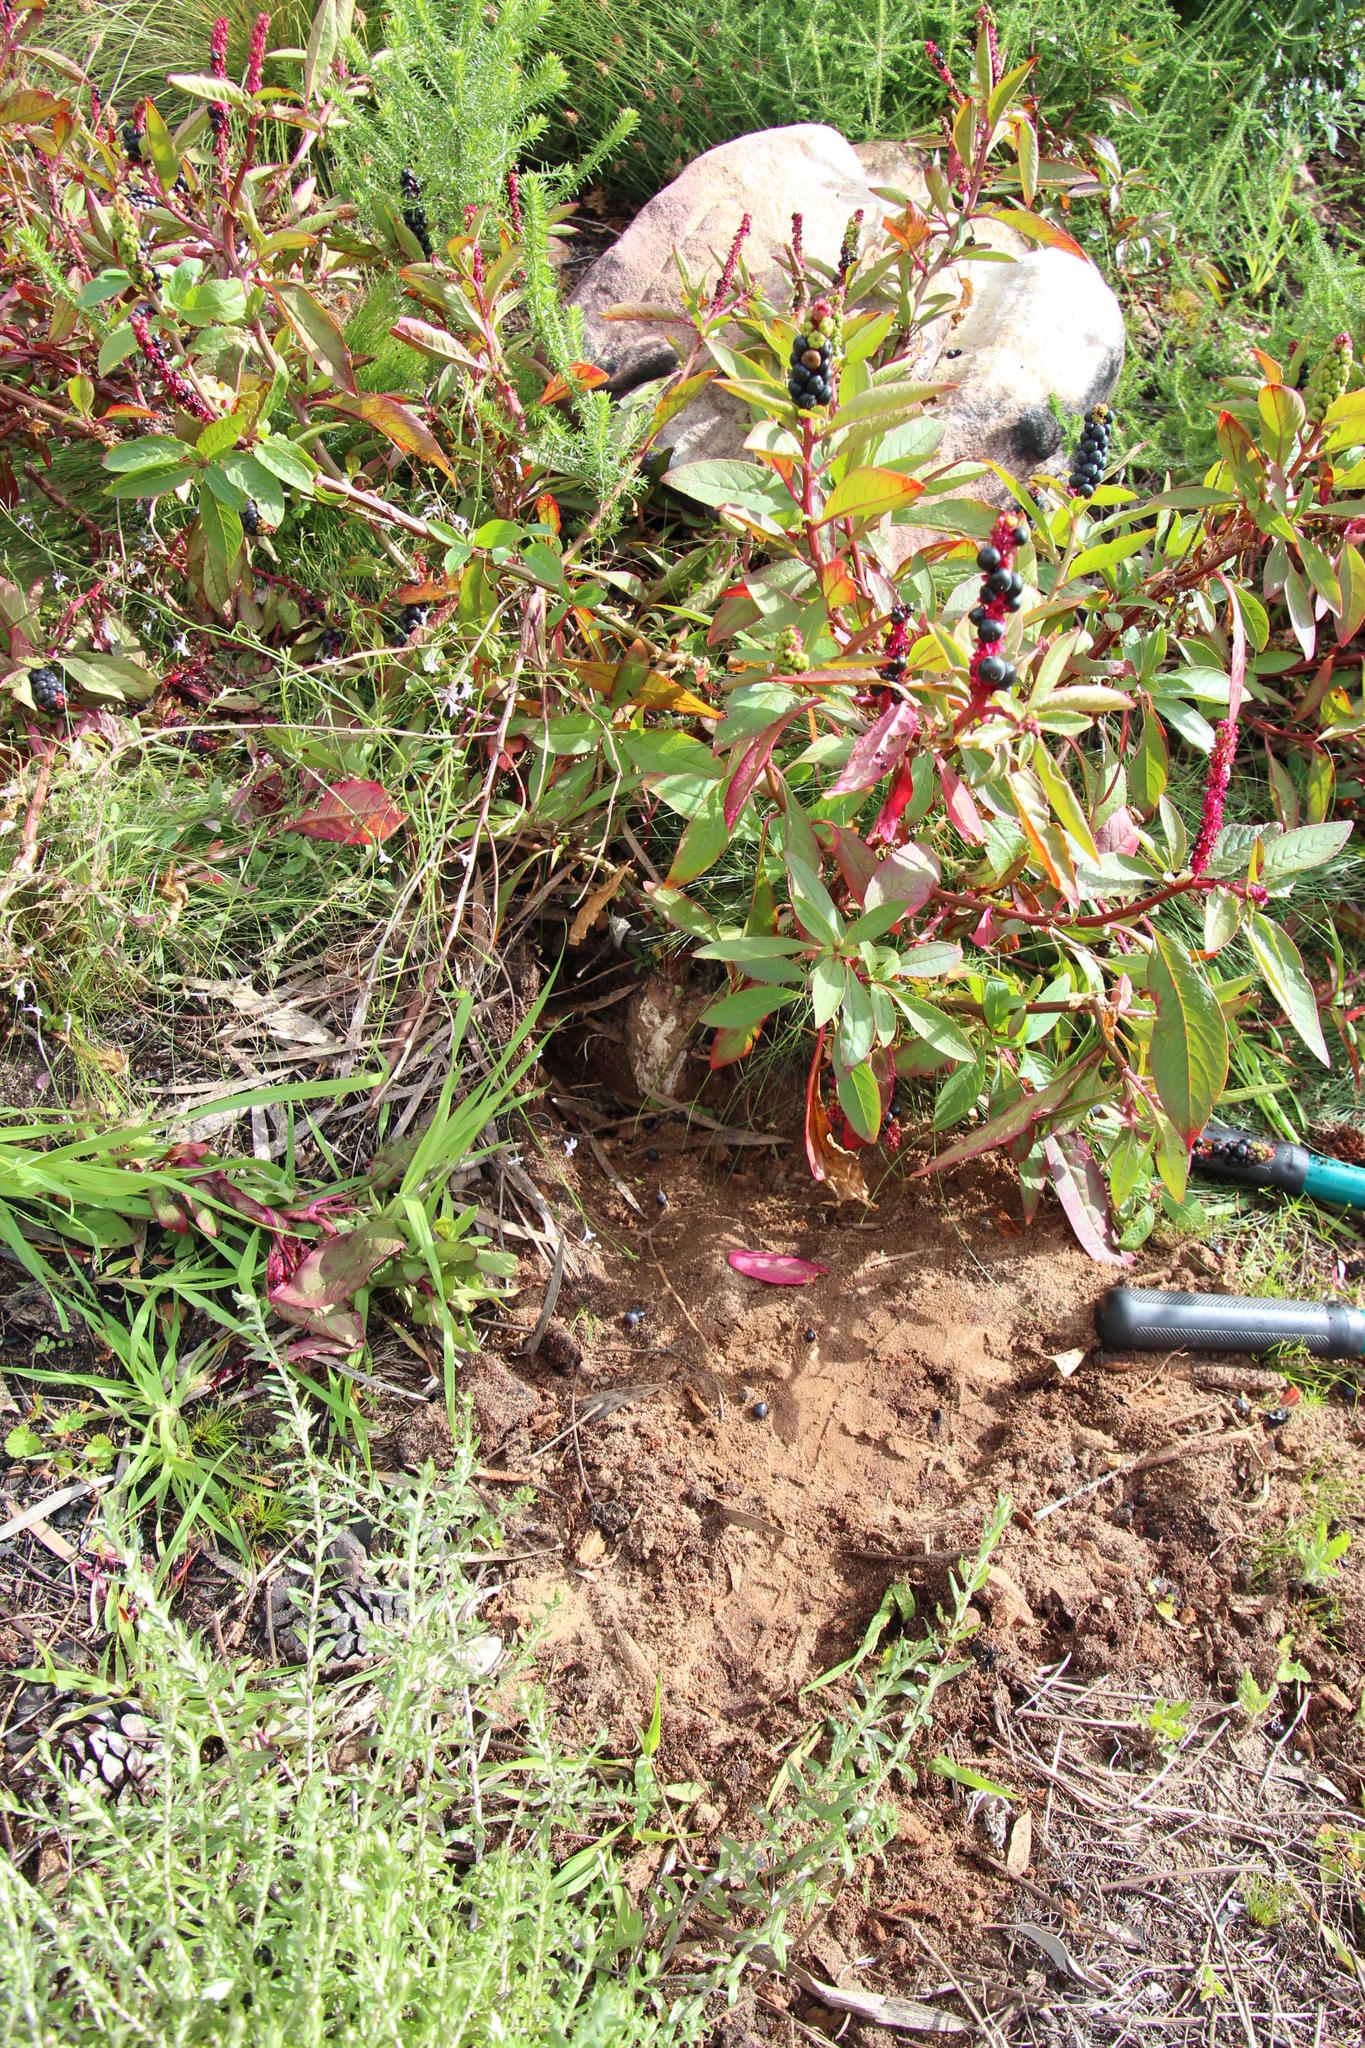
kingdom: Plantae
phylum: Tracheophyta
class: Magnoliopsida
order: Caryophyllales
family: Phytolaccaceae
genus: Phytolacca
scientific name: Phytolacca icosandra
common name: Button pokeweed
